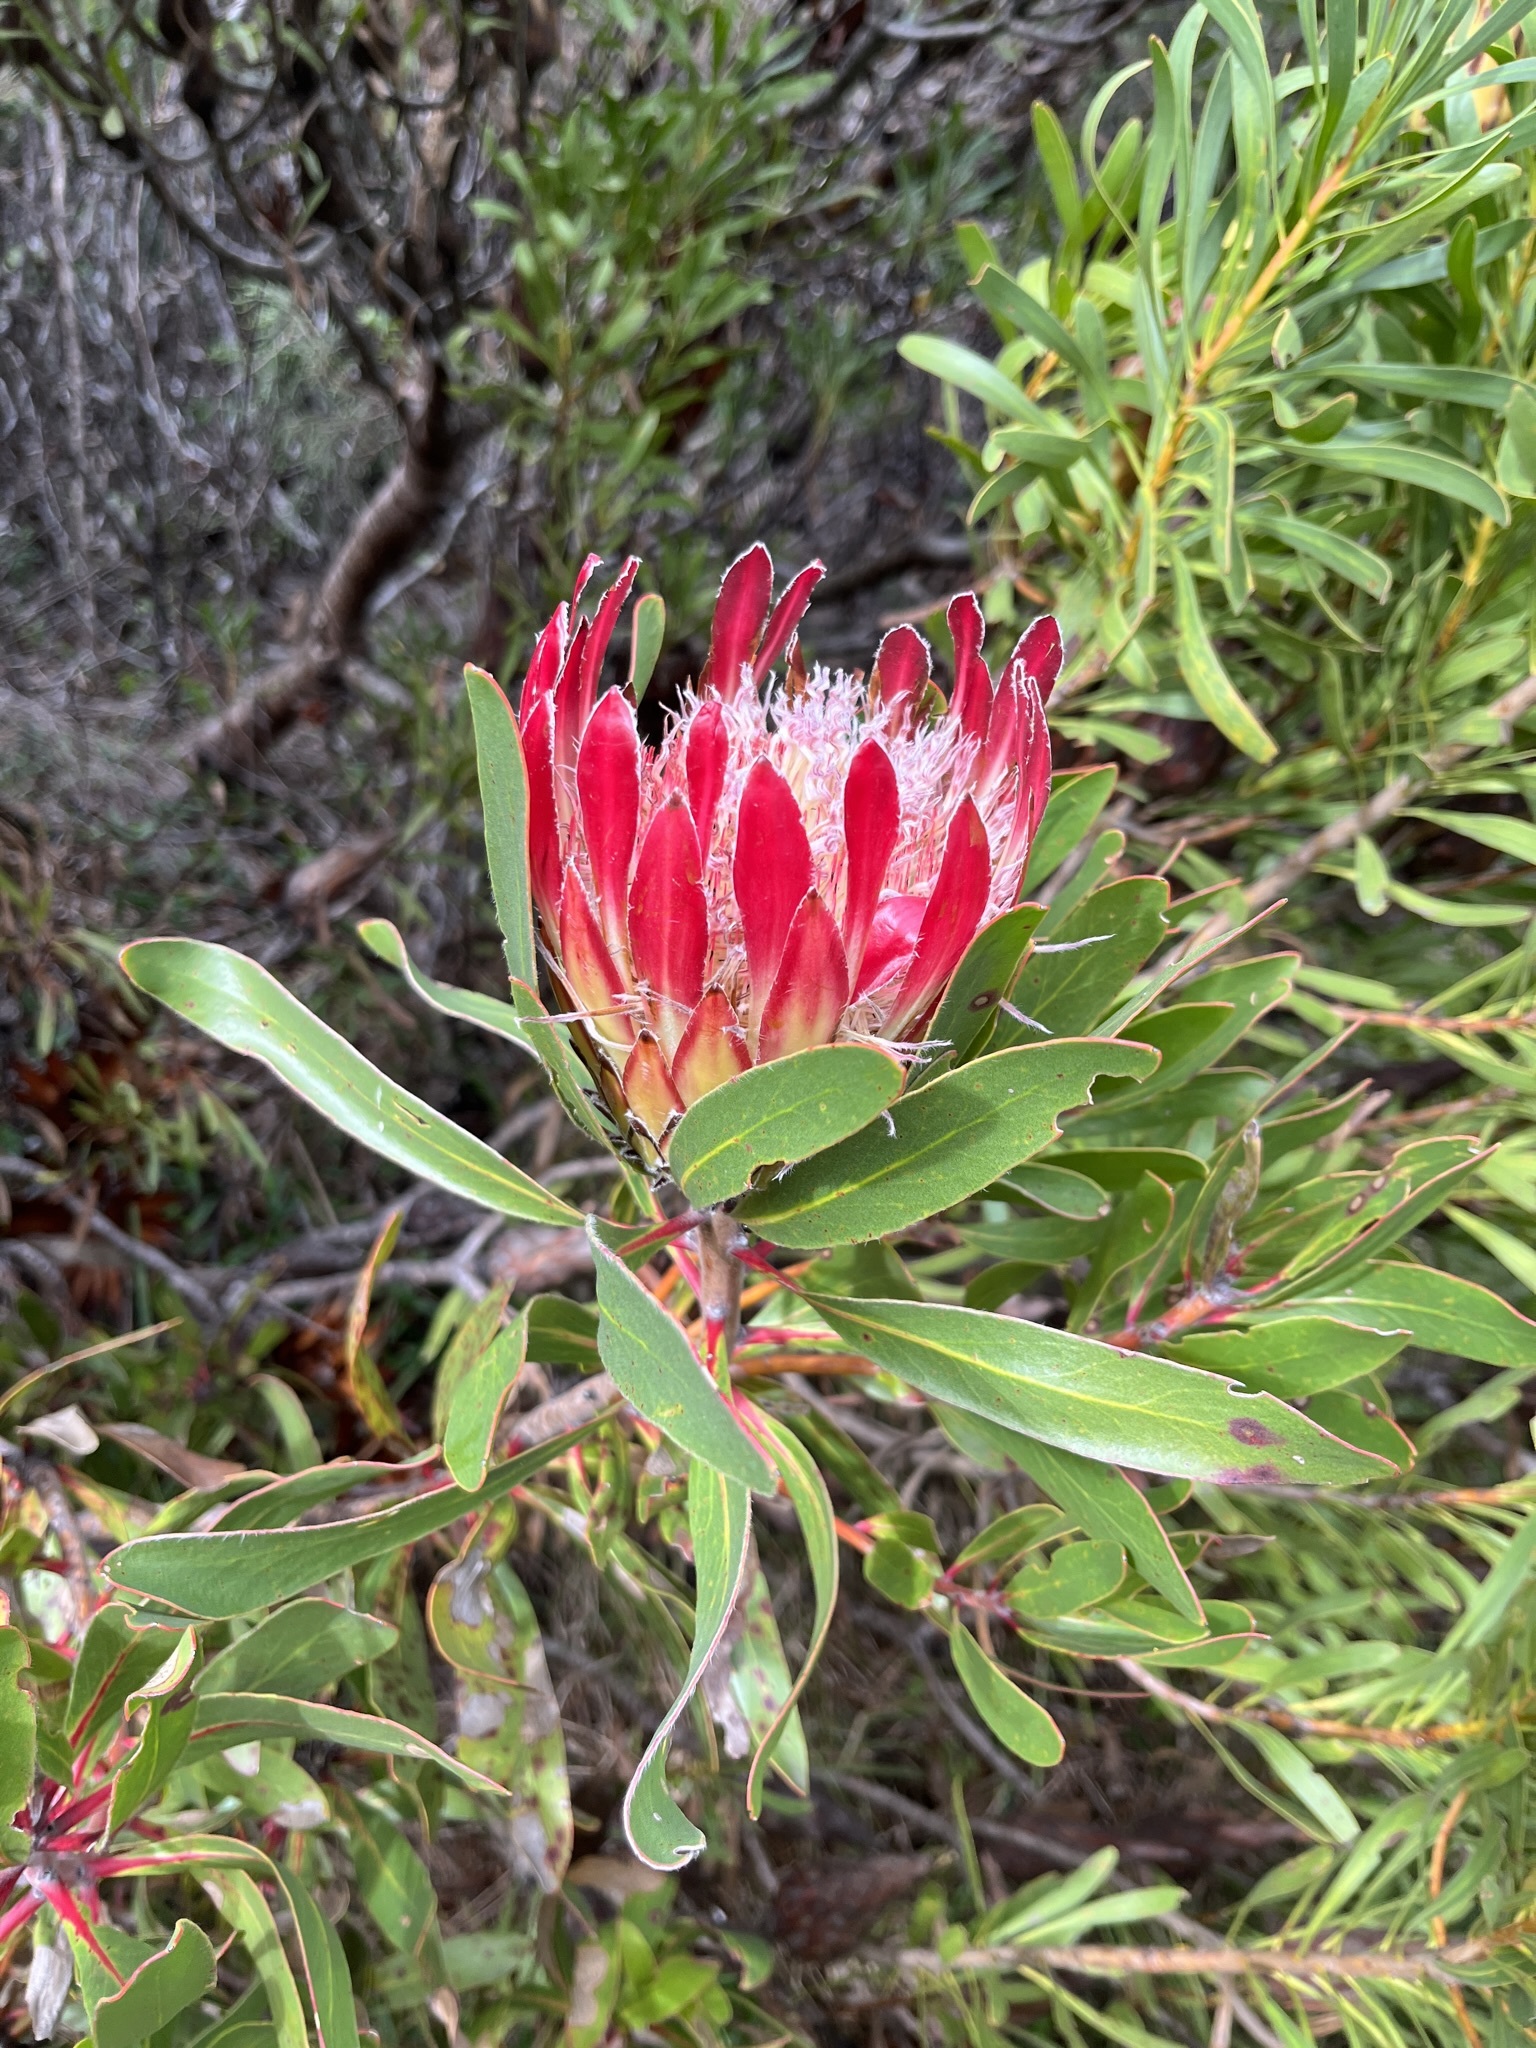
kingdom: Plantae
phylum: Tracheophyta
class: Magnoliopsida
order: Proteales
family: Proteaceae
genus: Protea
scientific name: Protea obtusifolia
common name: Bredasdorp sugarbush
